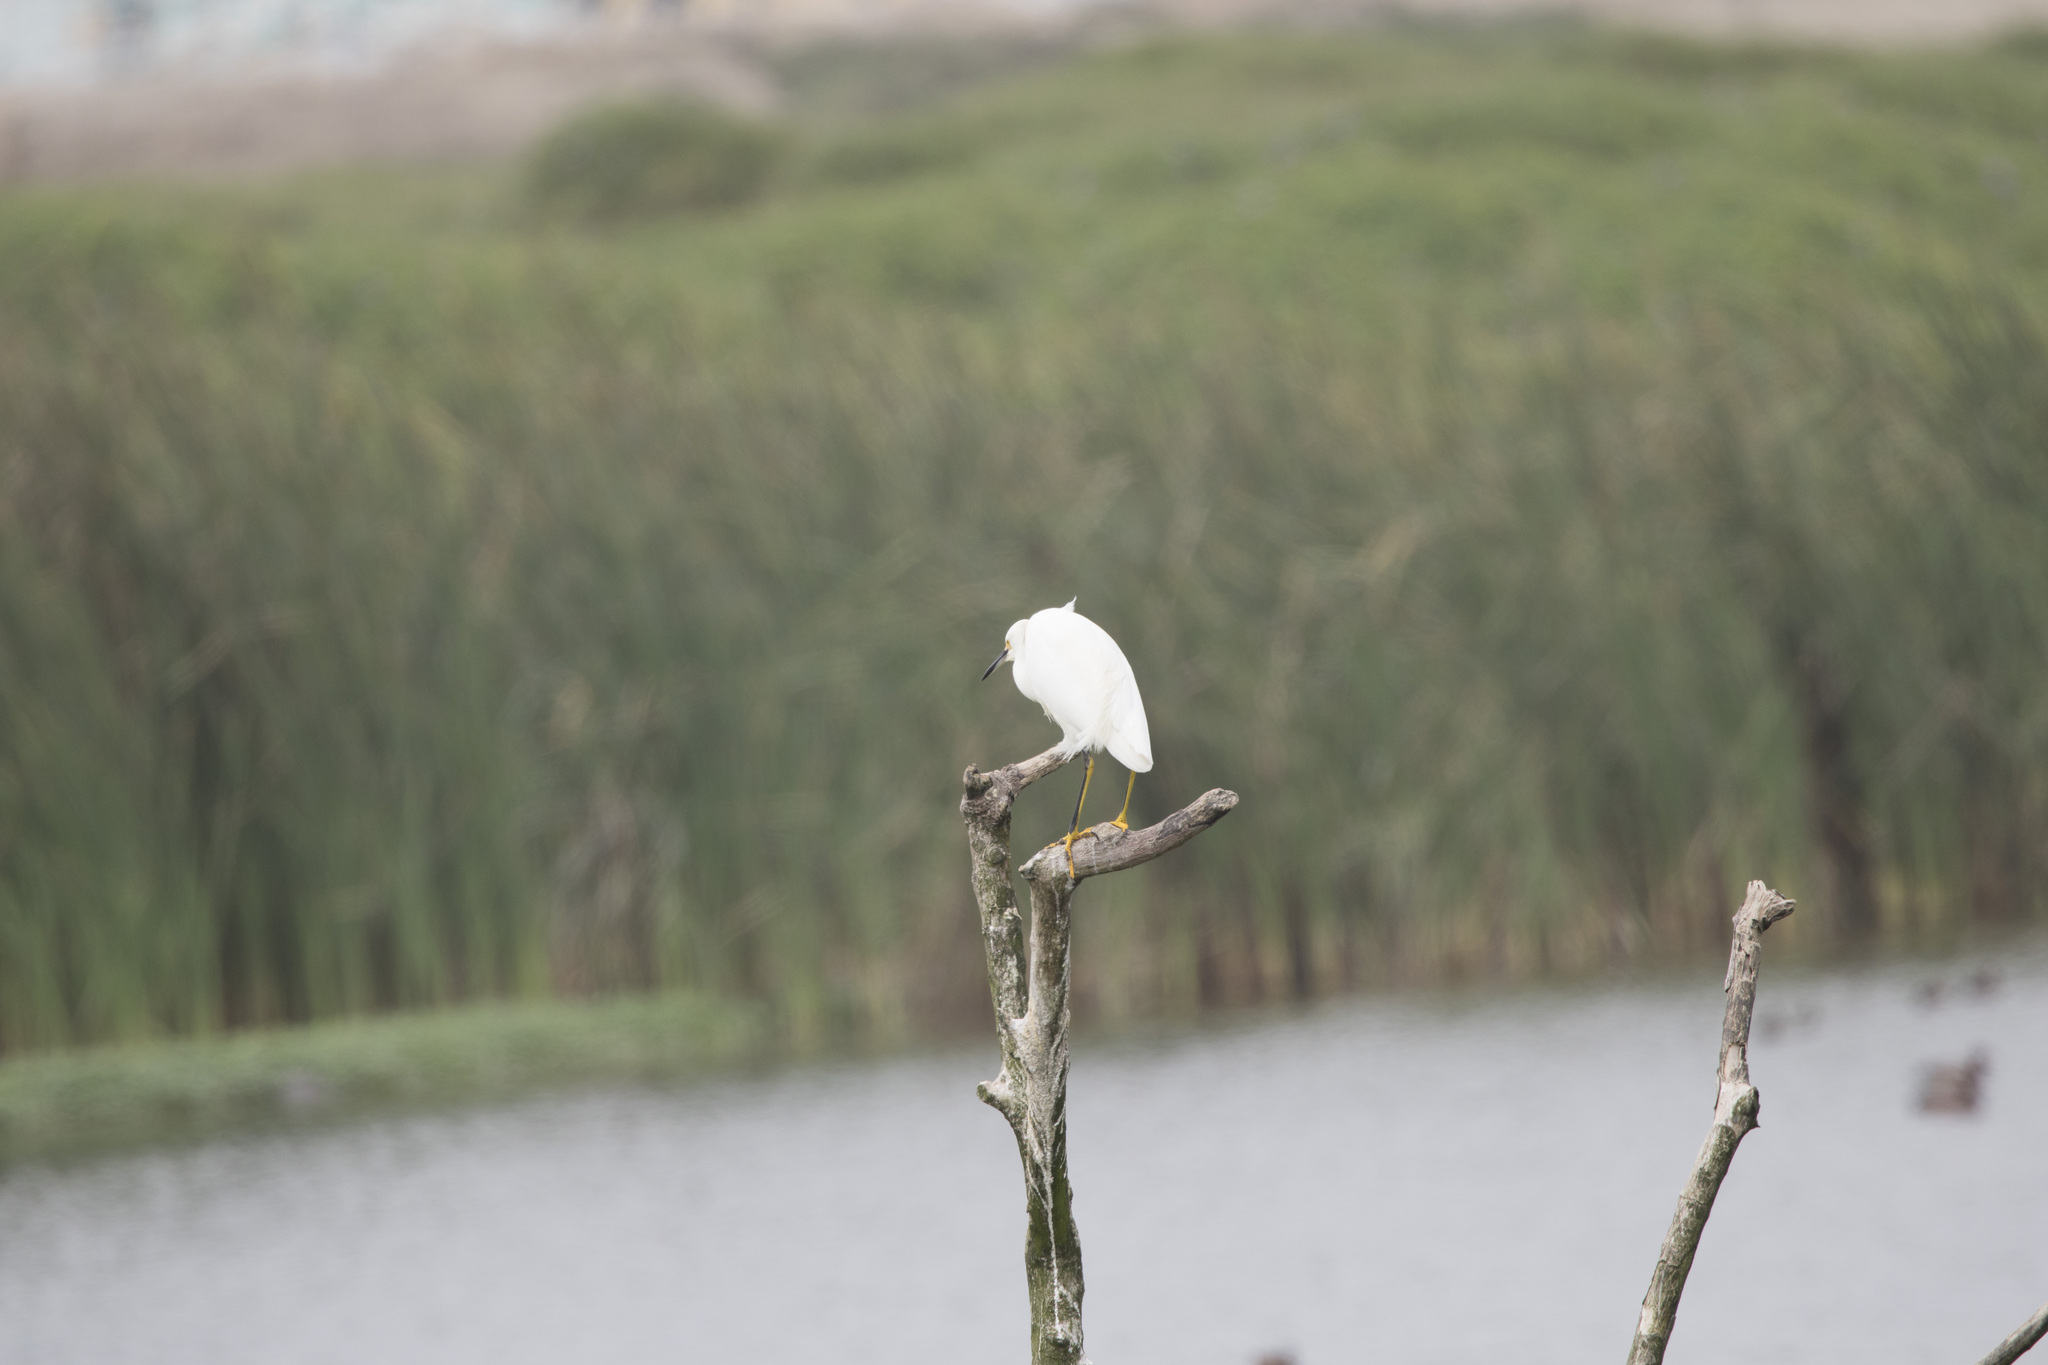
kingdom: Animalia
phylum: Chordata
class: Aves
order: Pelecaniformes
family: Ardeidae
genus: Egretta
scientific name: Egretta thula
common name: Snowy egret
